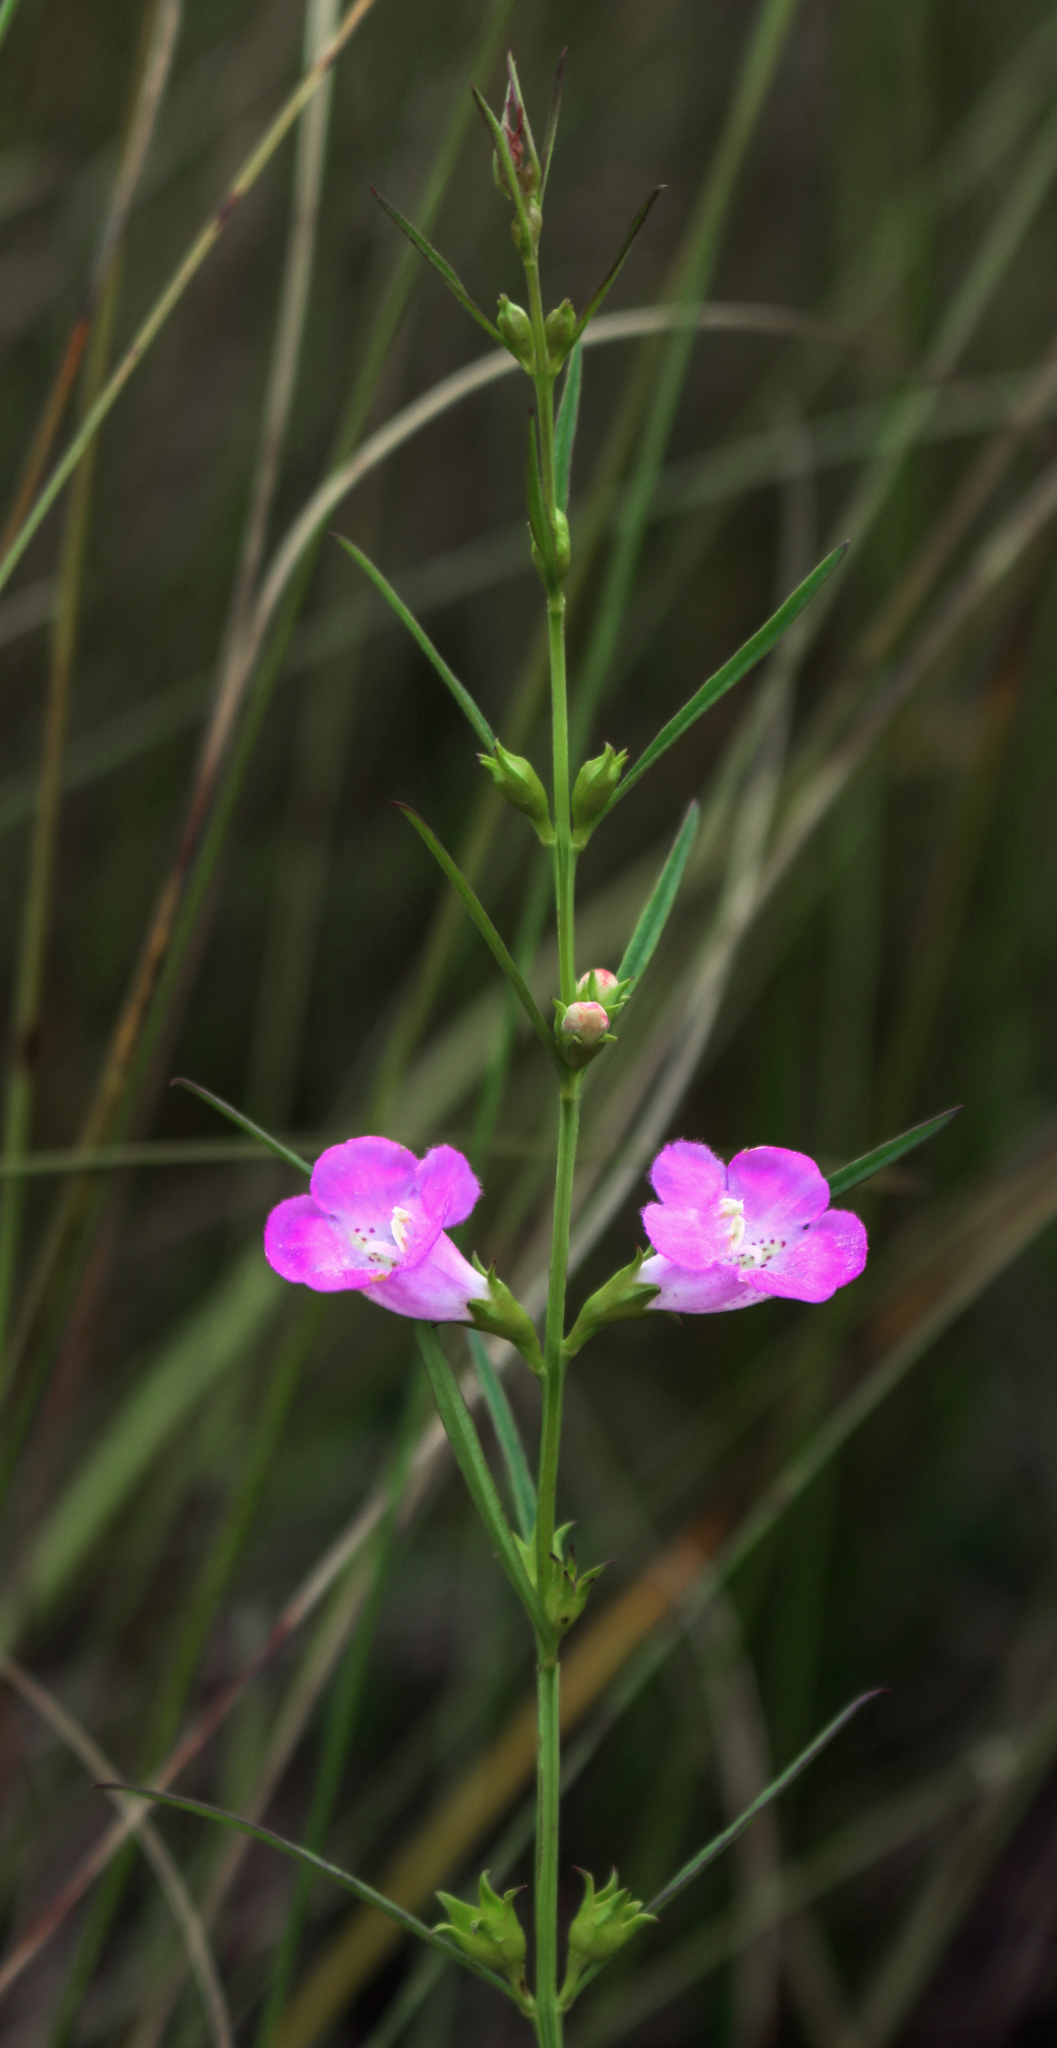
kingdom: Plantae
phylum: Tracheophyta
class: Magnoliopsida
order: Lamiales
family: Orobanchaceae
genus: Agalinis
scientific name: Agalinis purpurea
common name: Purple false foxglove
